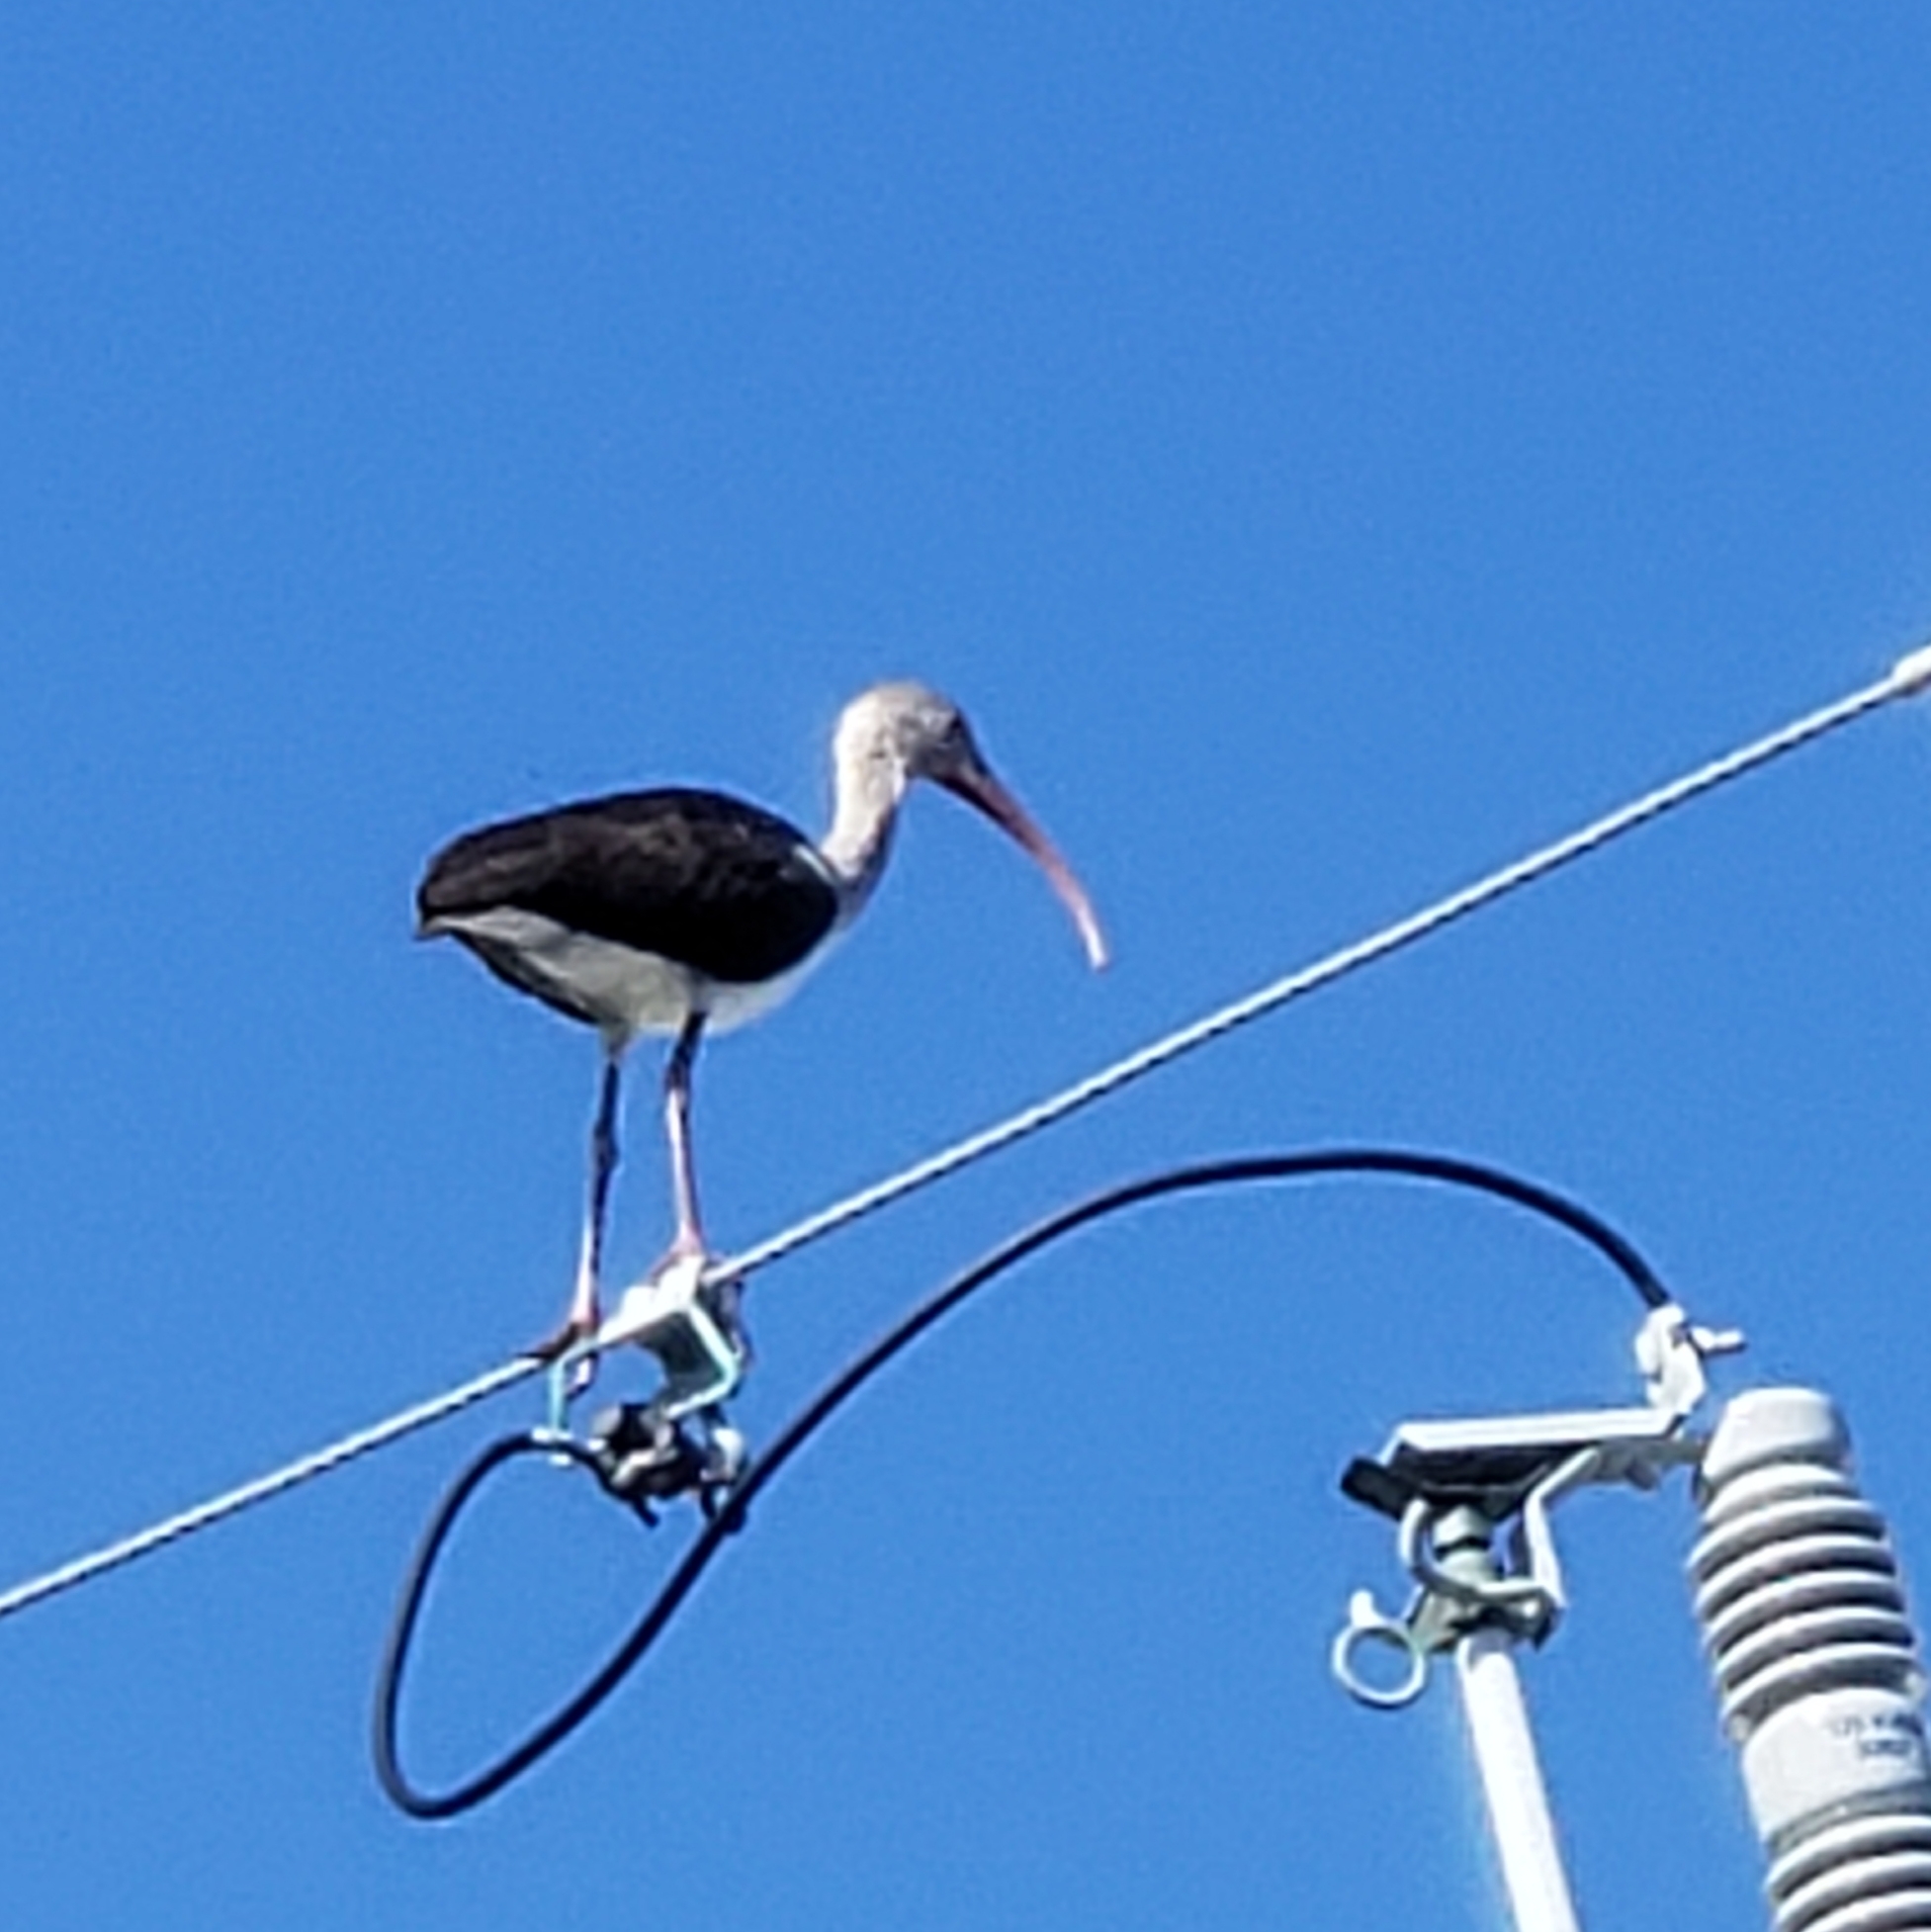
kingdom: Animalia
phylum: Chordata
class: Aves
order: Pelecaniformes
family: Threskiornithidae
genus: Eudocimus
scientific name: Eudocimus albus
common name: White ibis
